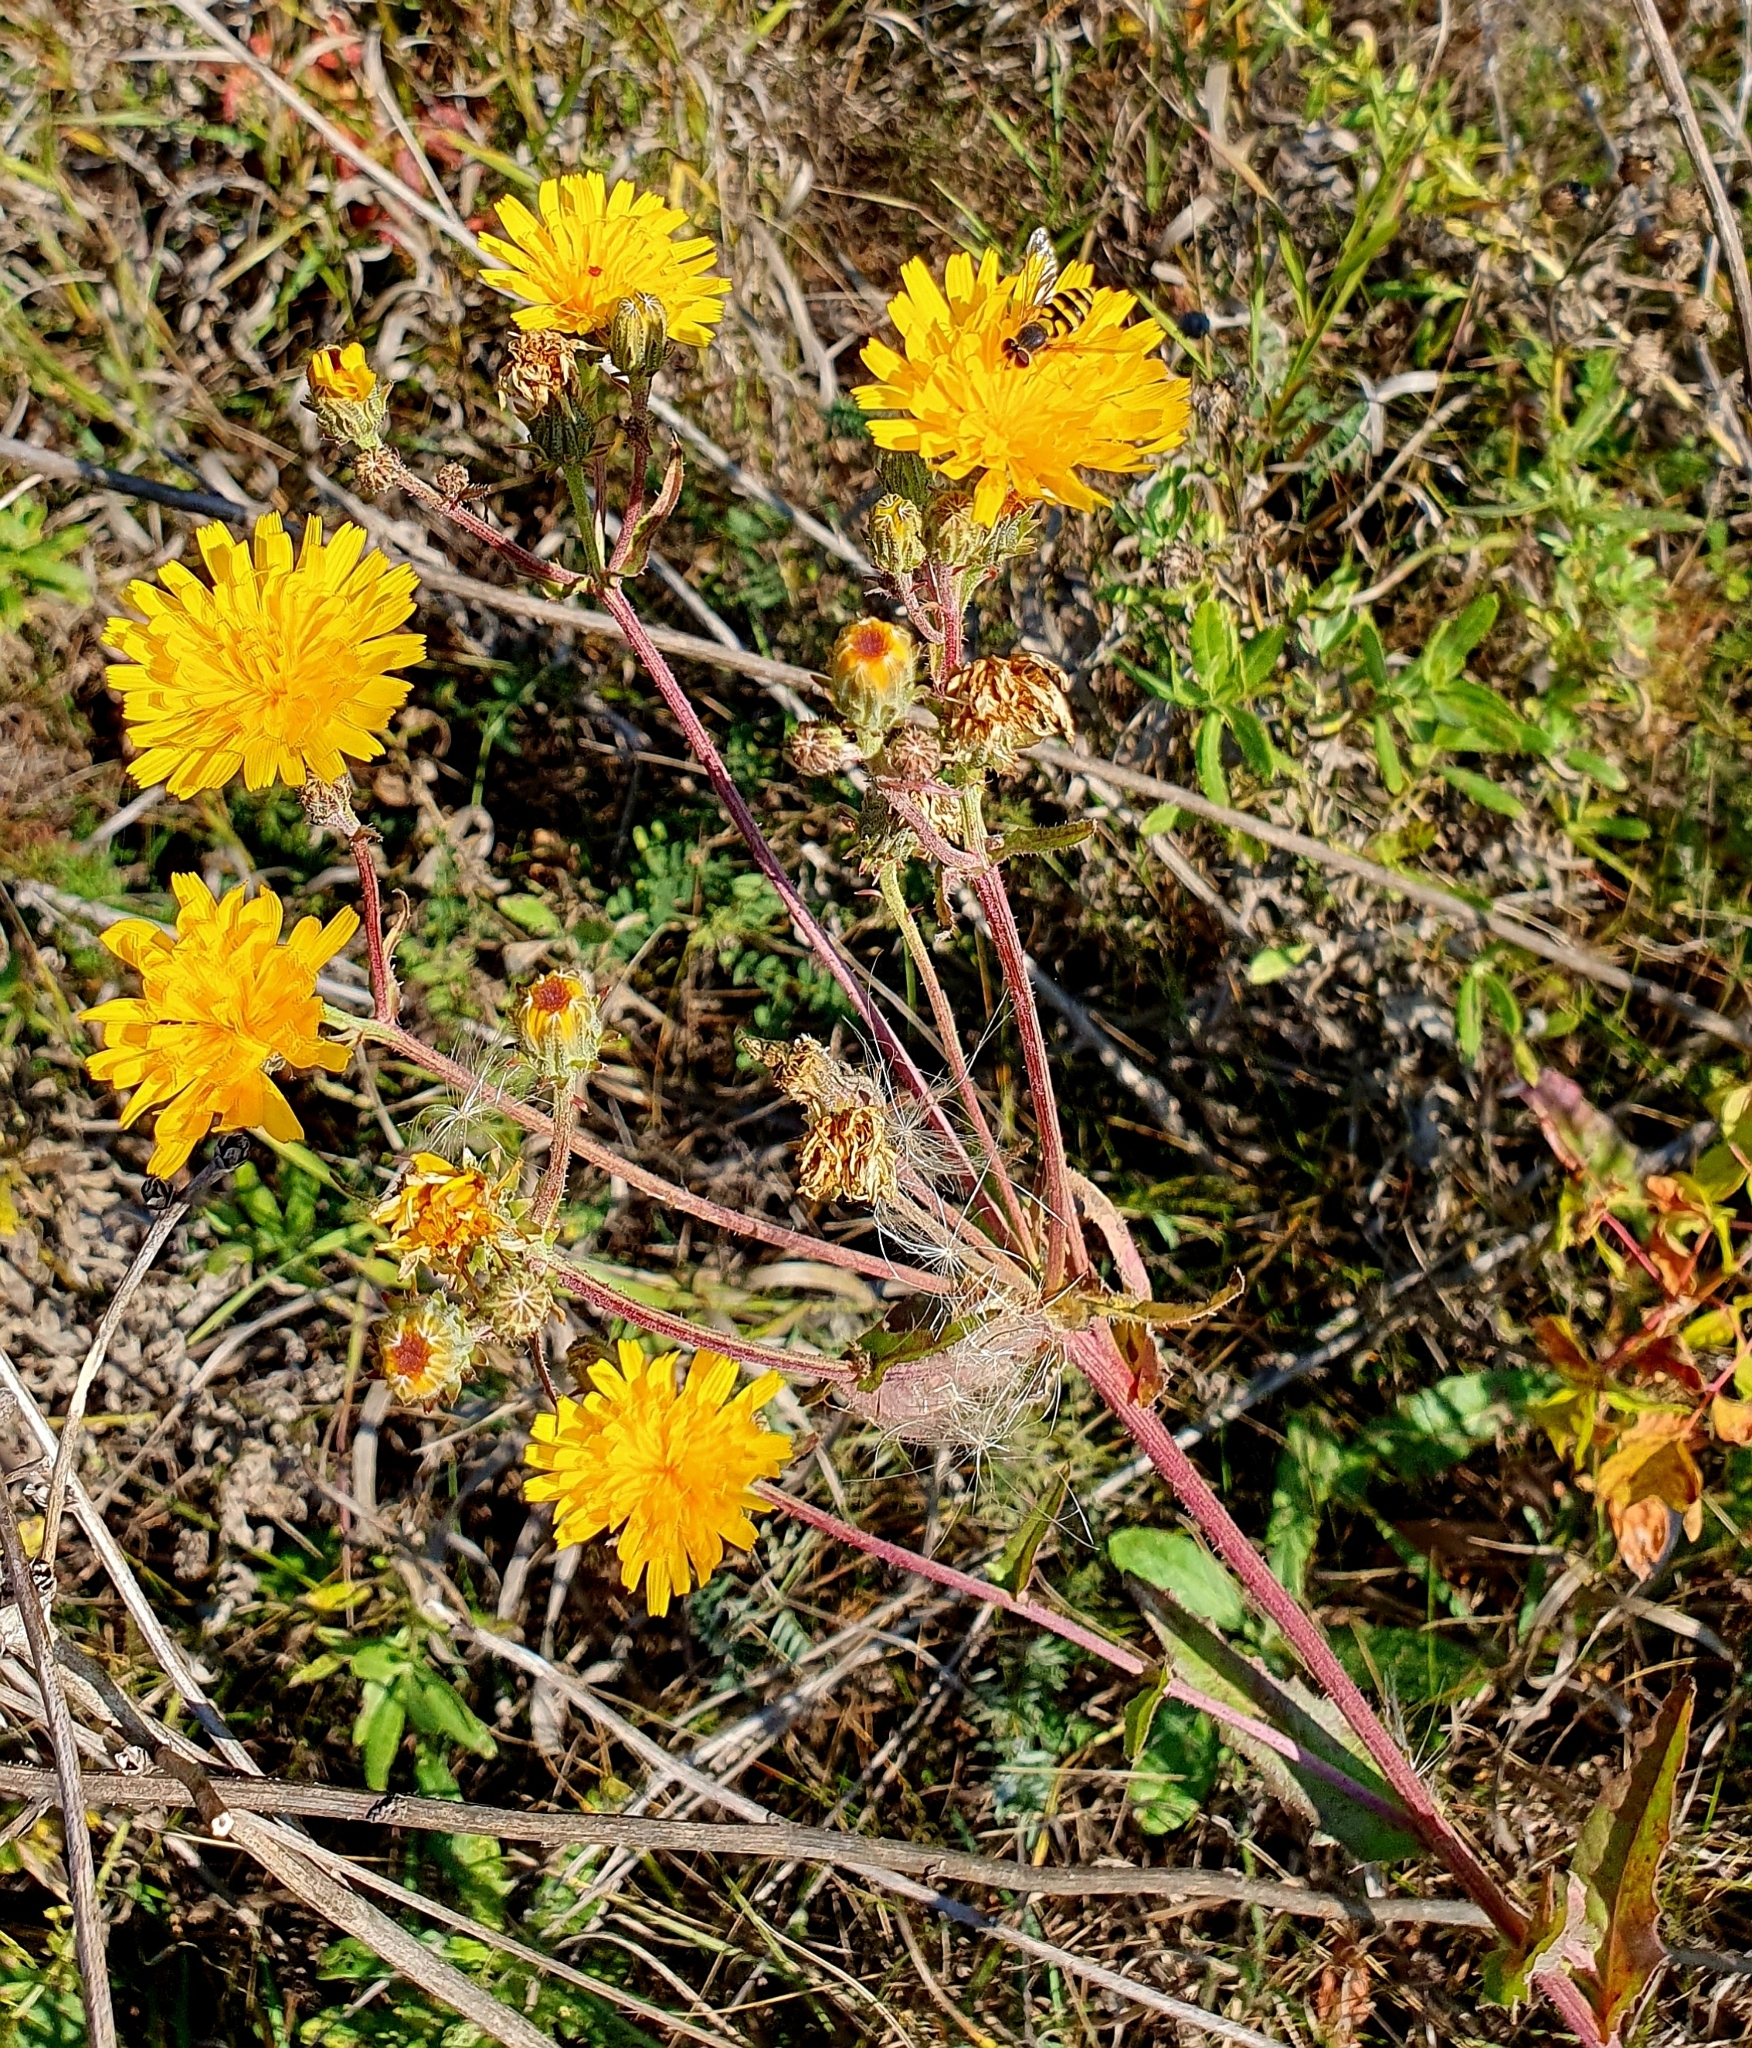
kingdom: Plantae
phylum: Tracheophyta
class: Magnoliopsida
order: Asterales
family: Asteraceae
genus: Picris
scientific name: Picris hieracioides
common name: Hawkweed oxtongue
